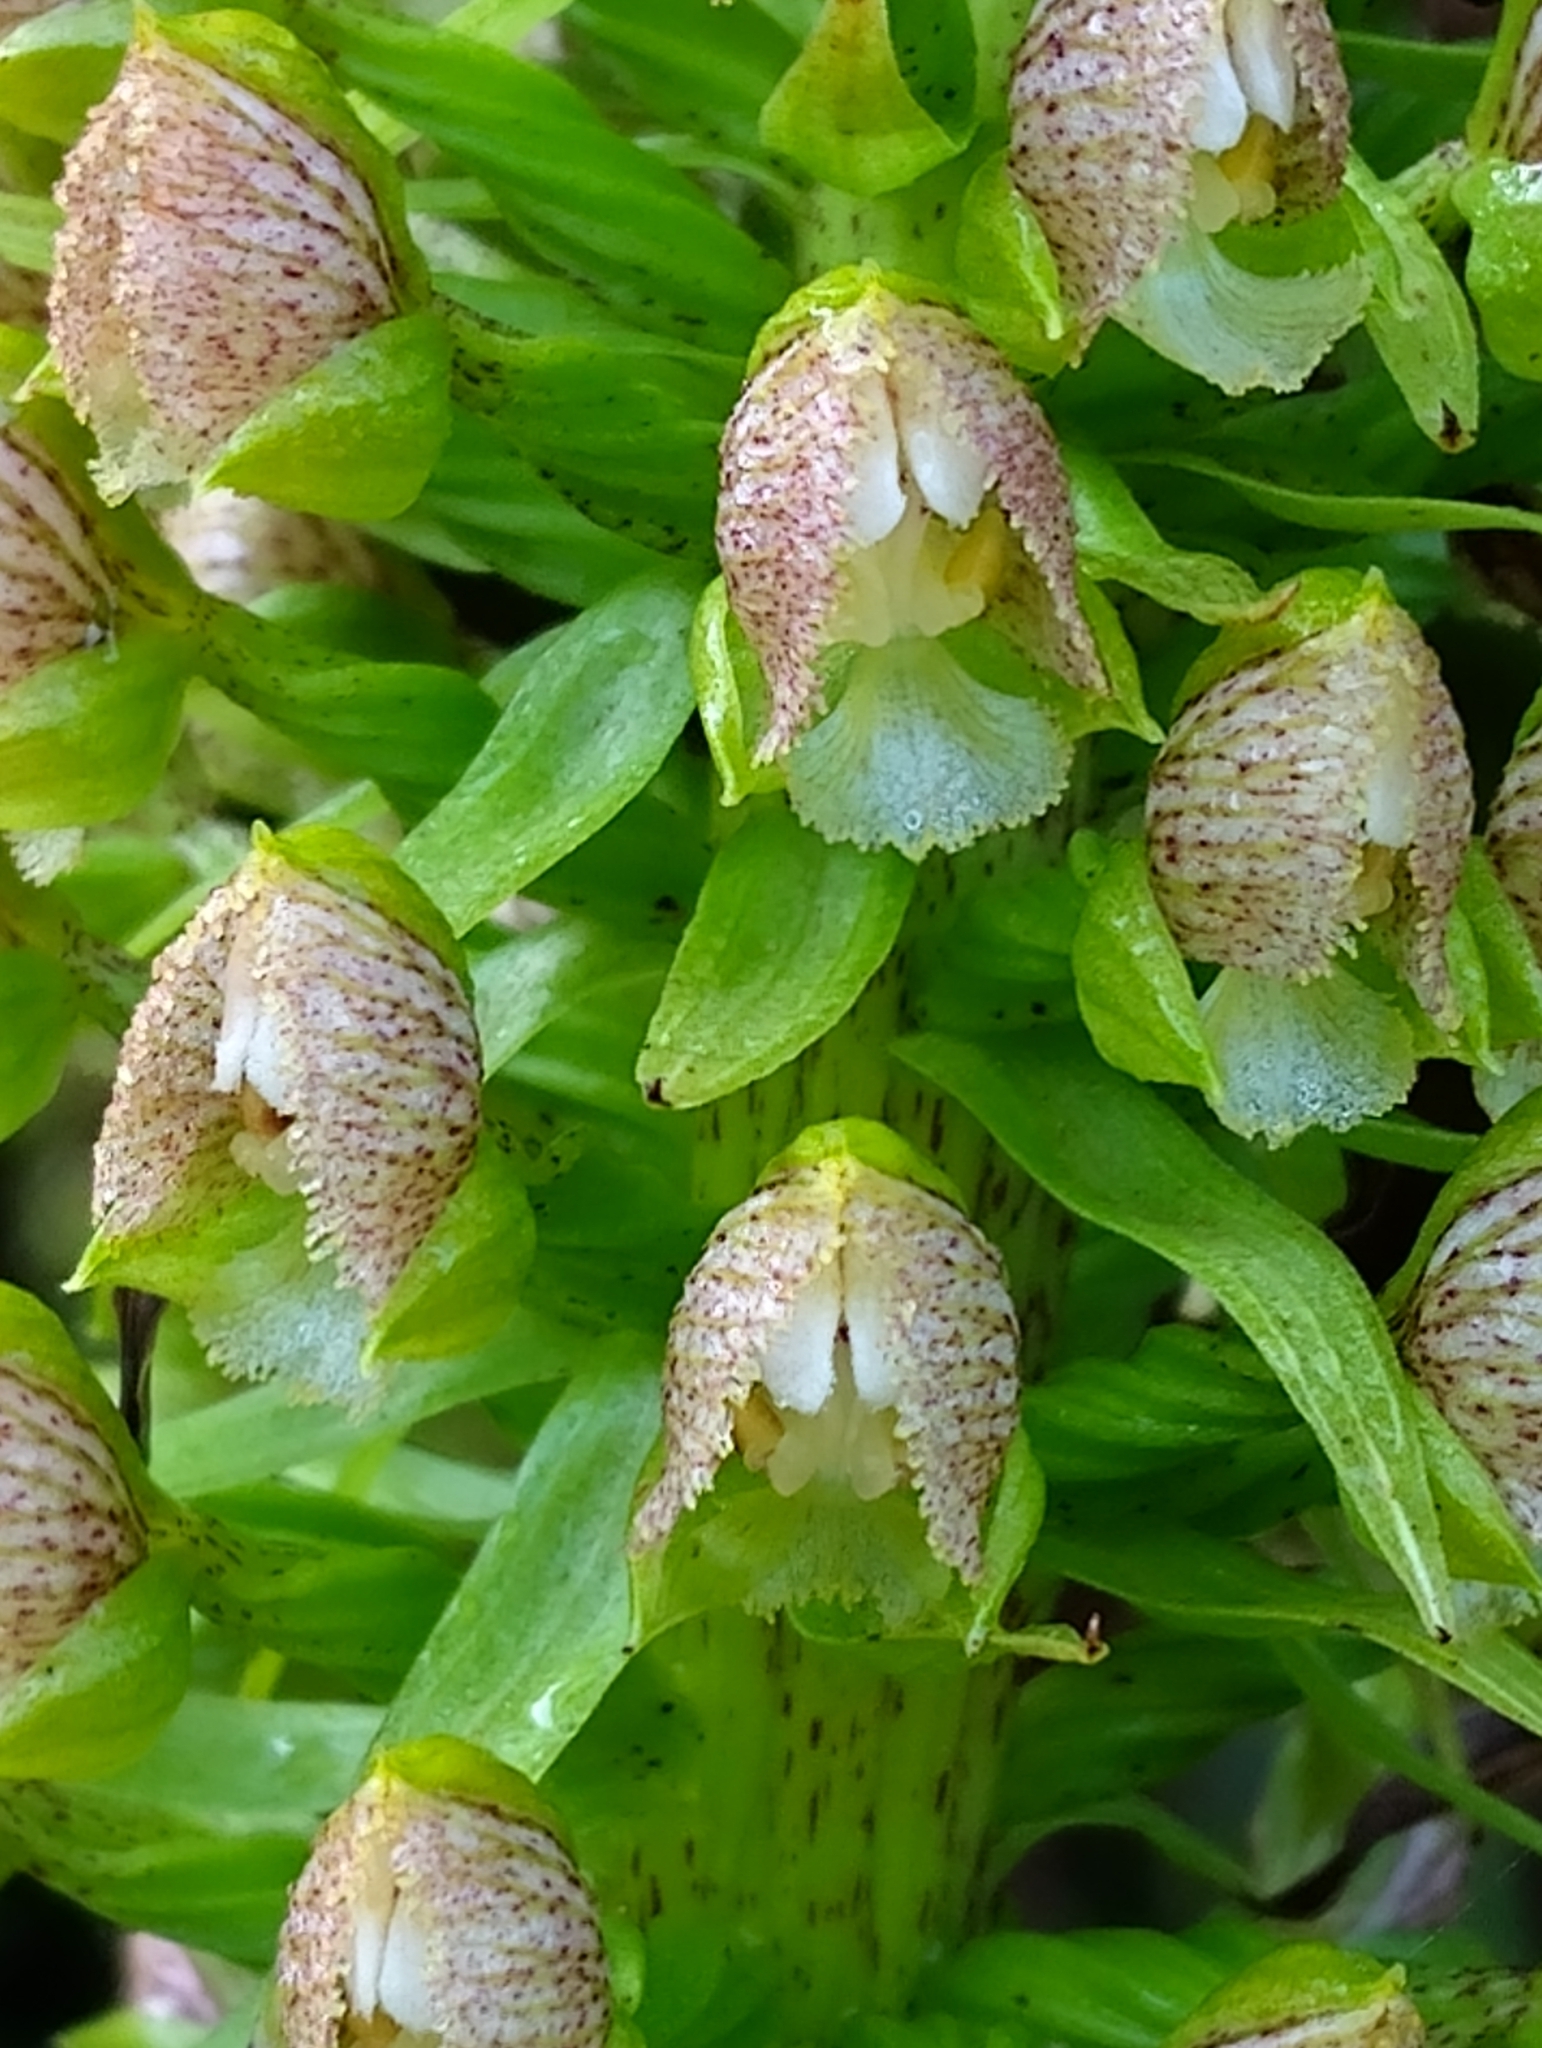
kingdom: Plantae
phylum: Tracheophyta
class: Liliopsida
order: Asparagales
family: Orchidaceae
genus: Pterygodium
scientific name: Pterygodium magnum
